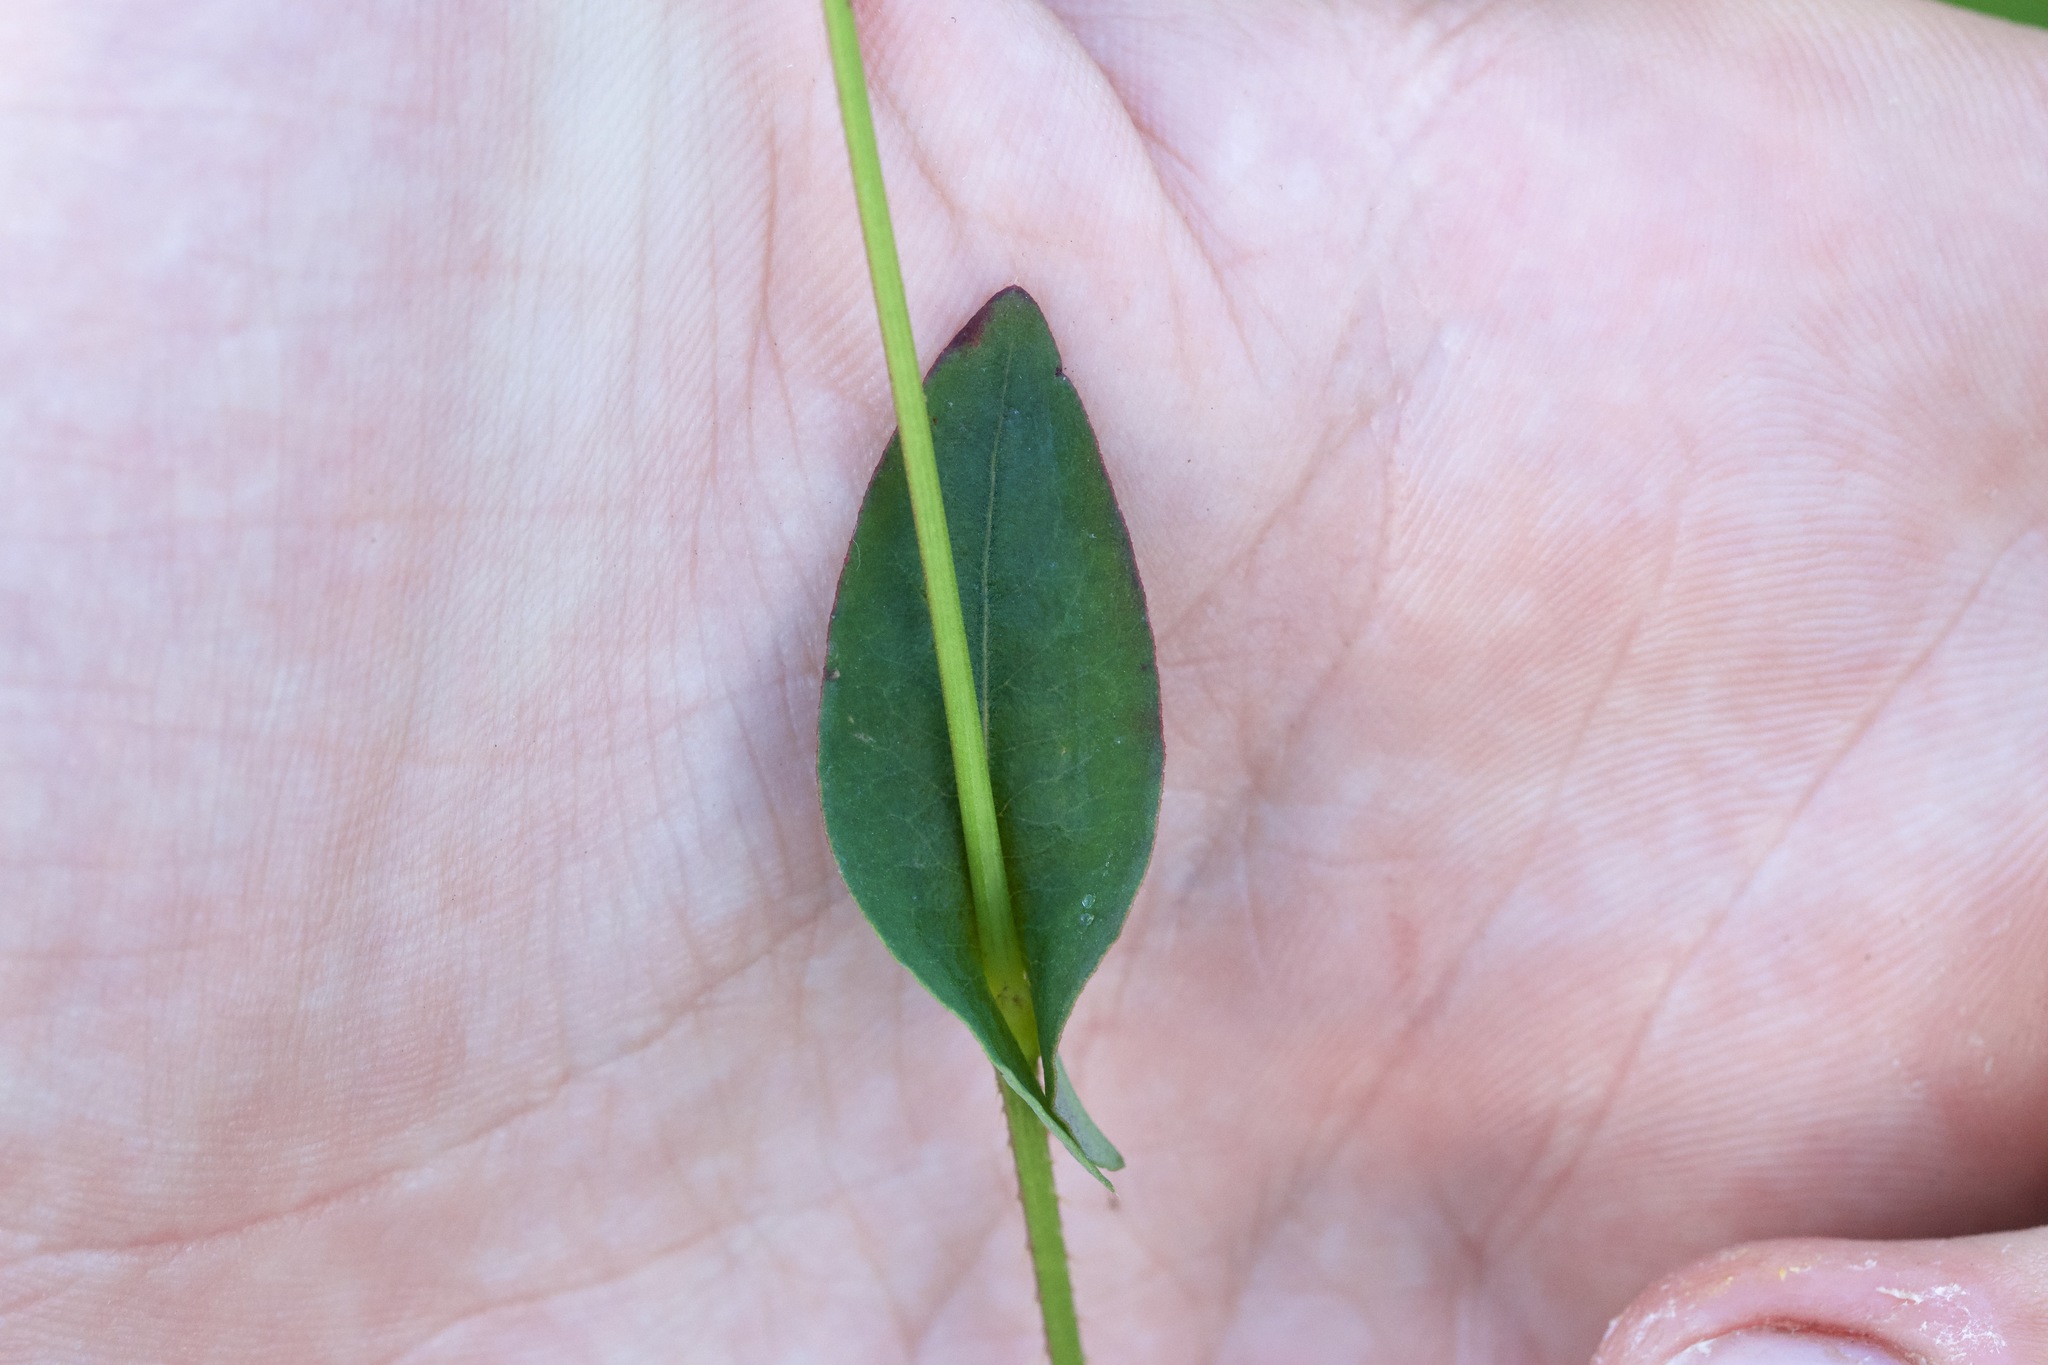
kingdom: Plantae
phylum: Tracheophyta
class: Magnoliopsida
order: Caryophyllales
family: Polygonaceae
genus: Persicaria
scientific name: Persicaria sagittata
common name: American tearthumb
